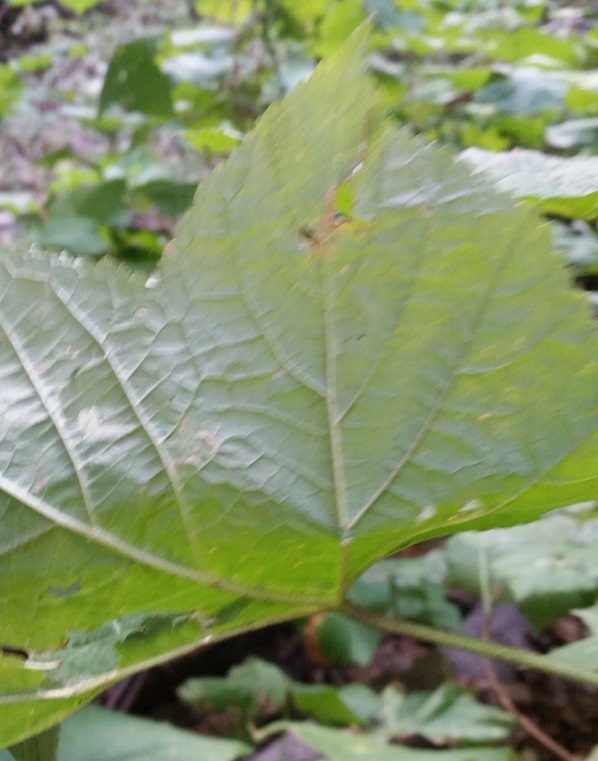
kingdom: Plantae
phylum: Tracheophyta
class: Magnoliopsida
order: Rosales
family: Rosaceae
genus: Rubus
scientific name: Rubus parviflorus
